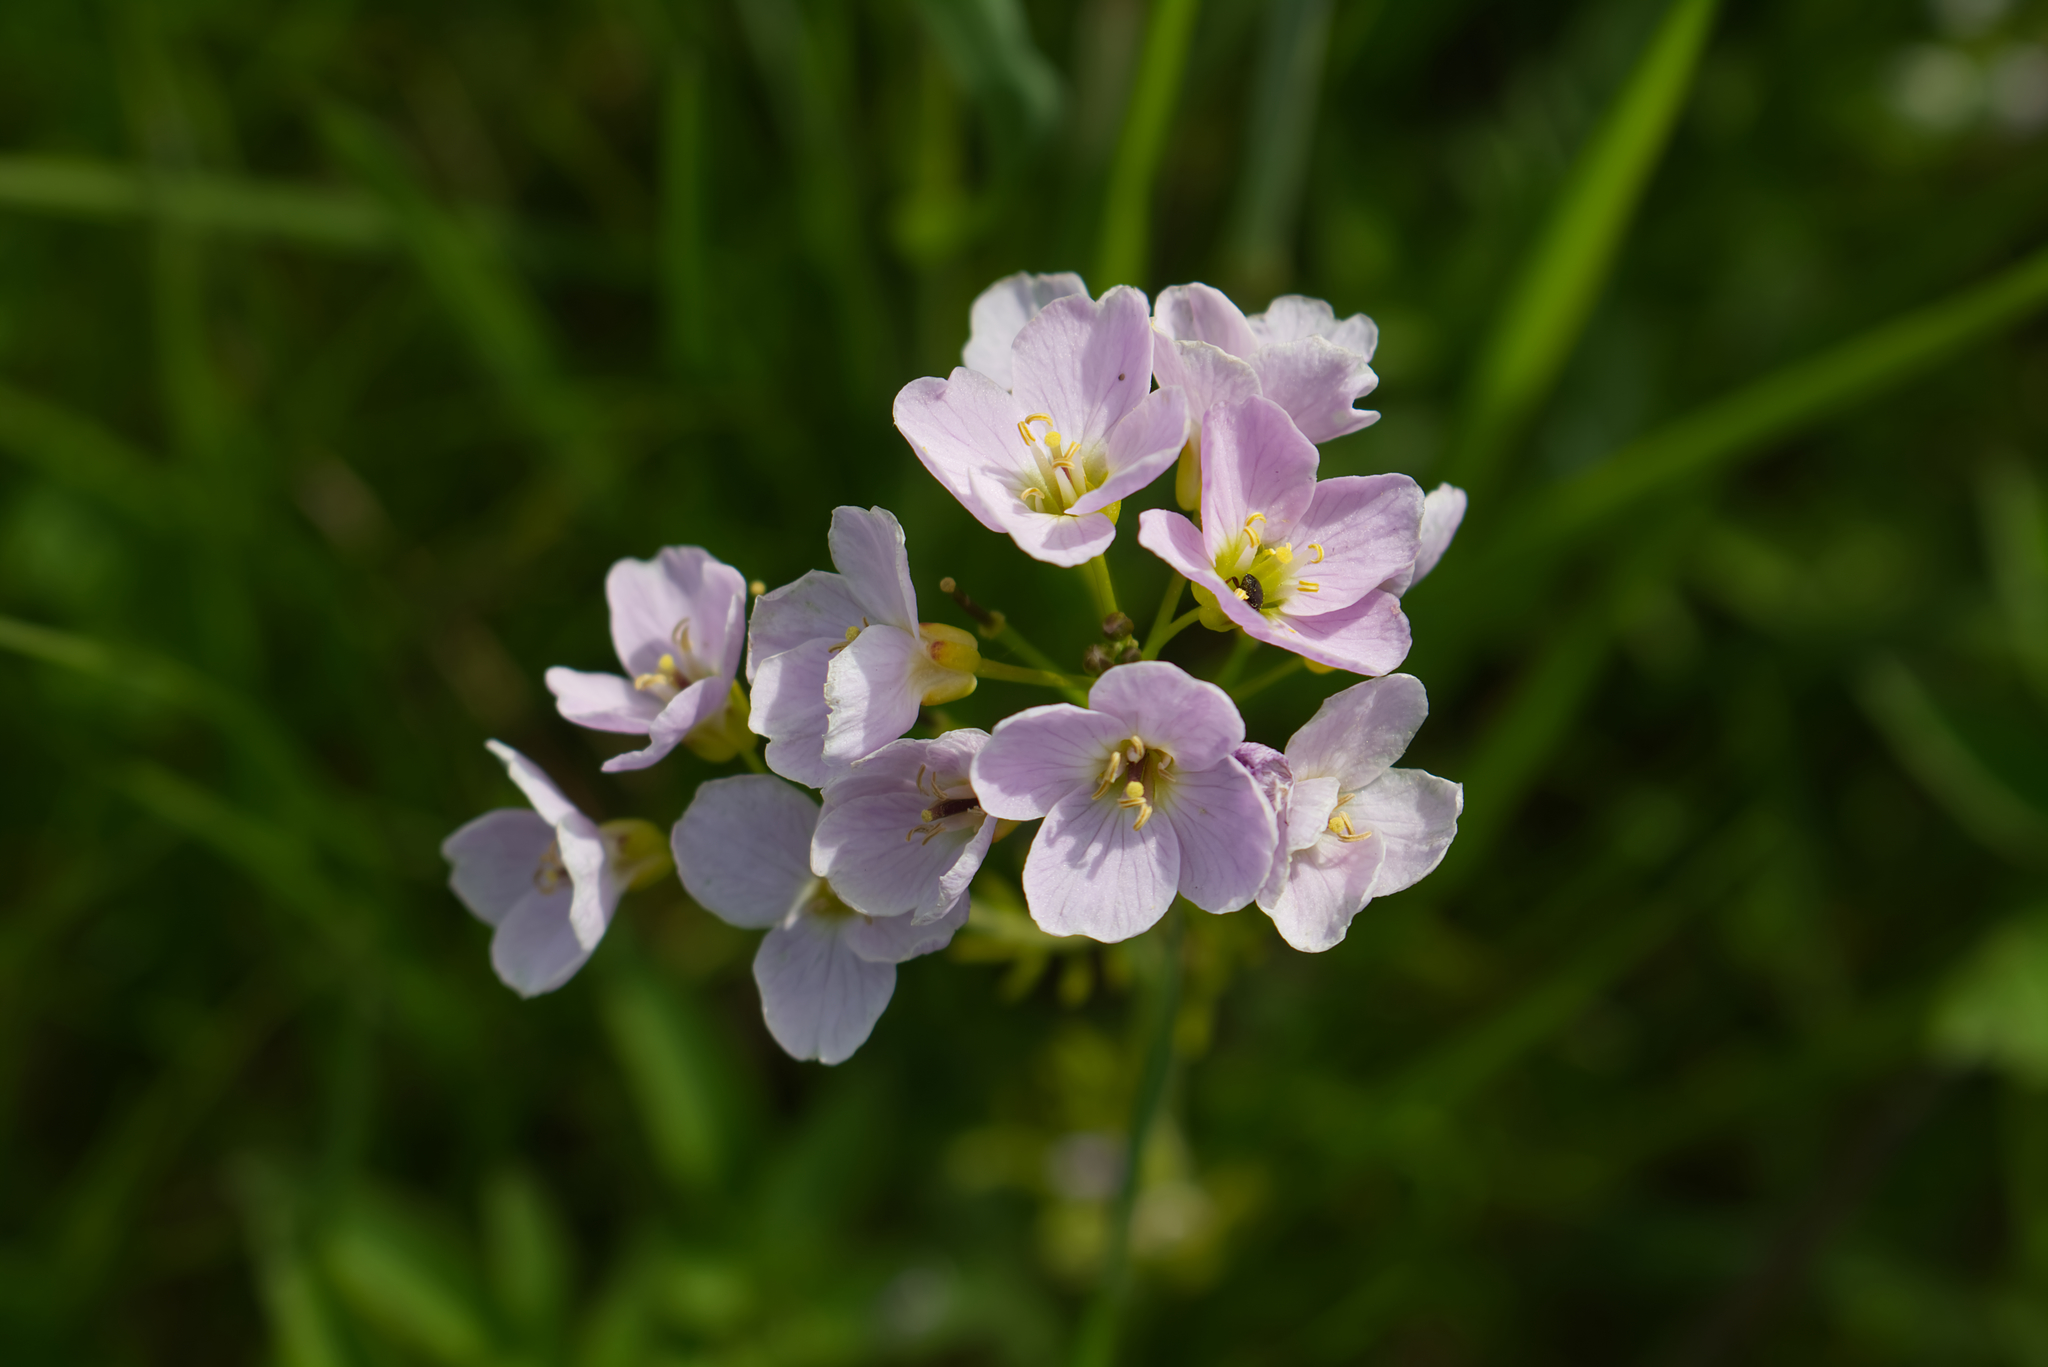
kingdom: Plantae
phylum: Tracheophyta
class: Magnoliopsida
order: Brassicales
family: Brassicaceae
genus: Cardamine
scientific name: Cardamine pratensis
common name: Cuckoo flower
